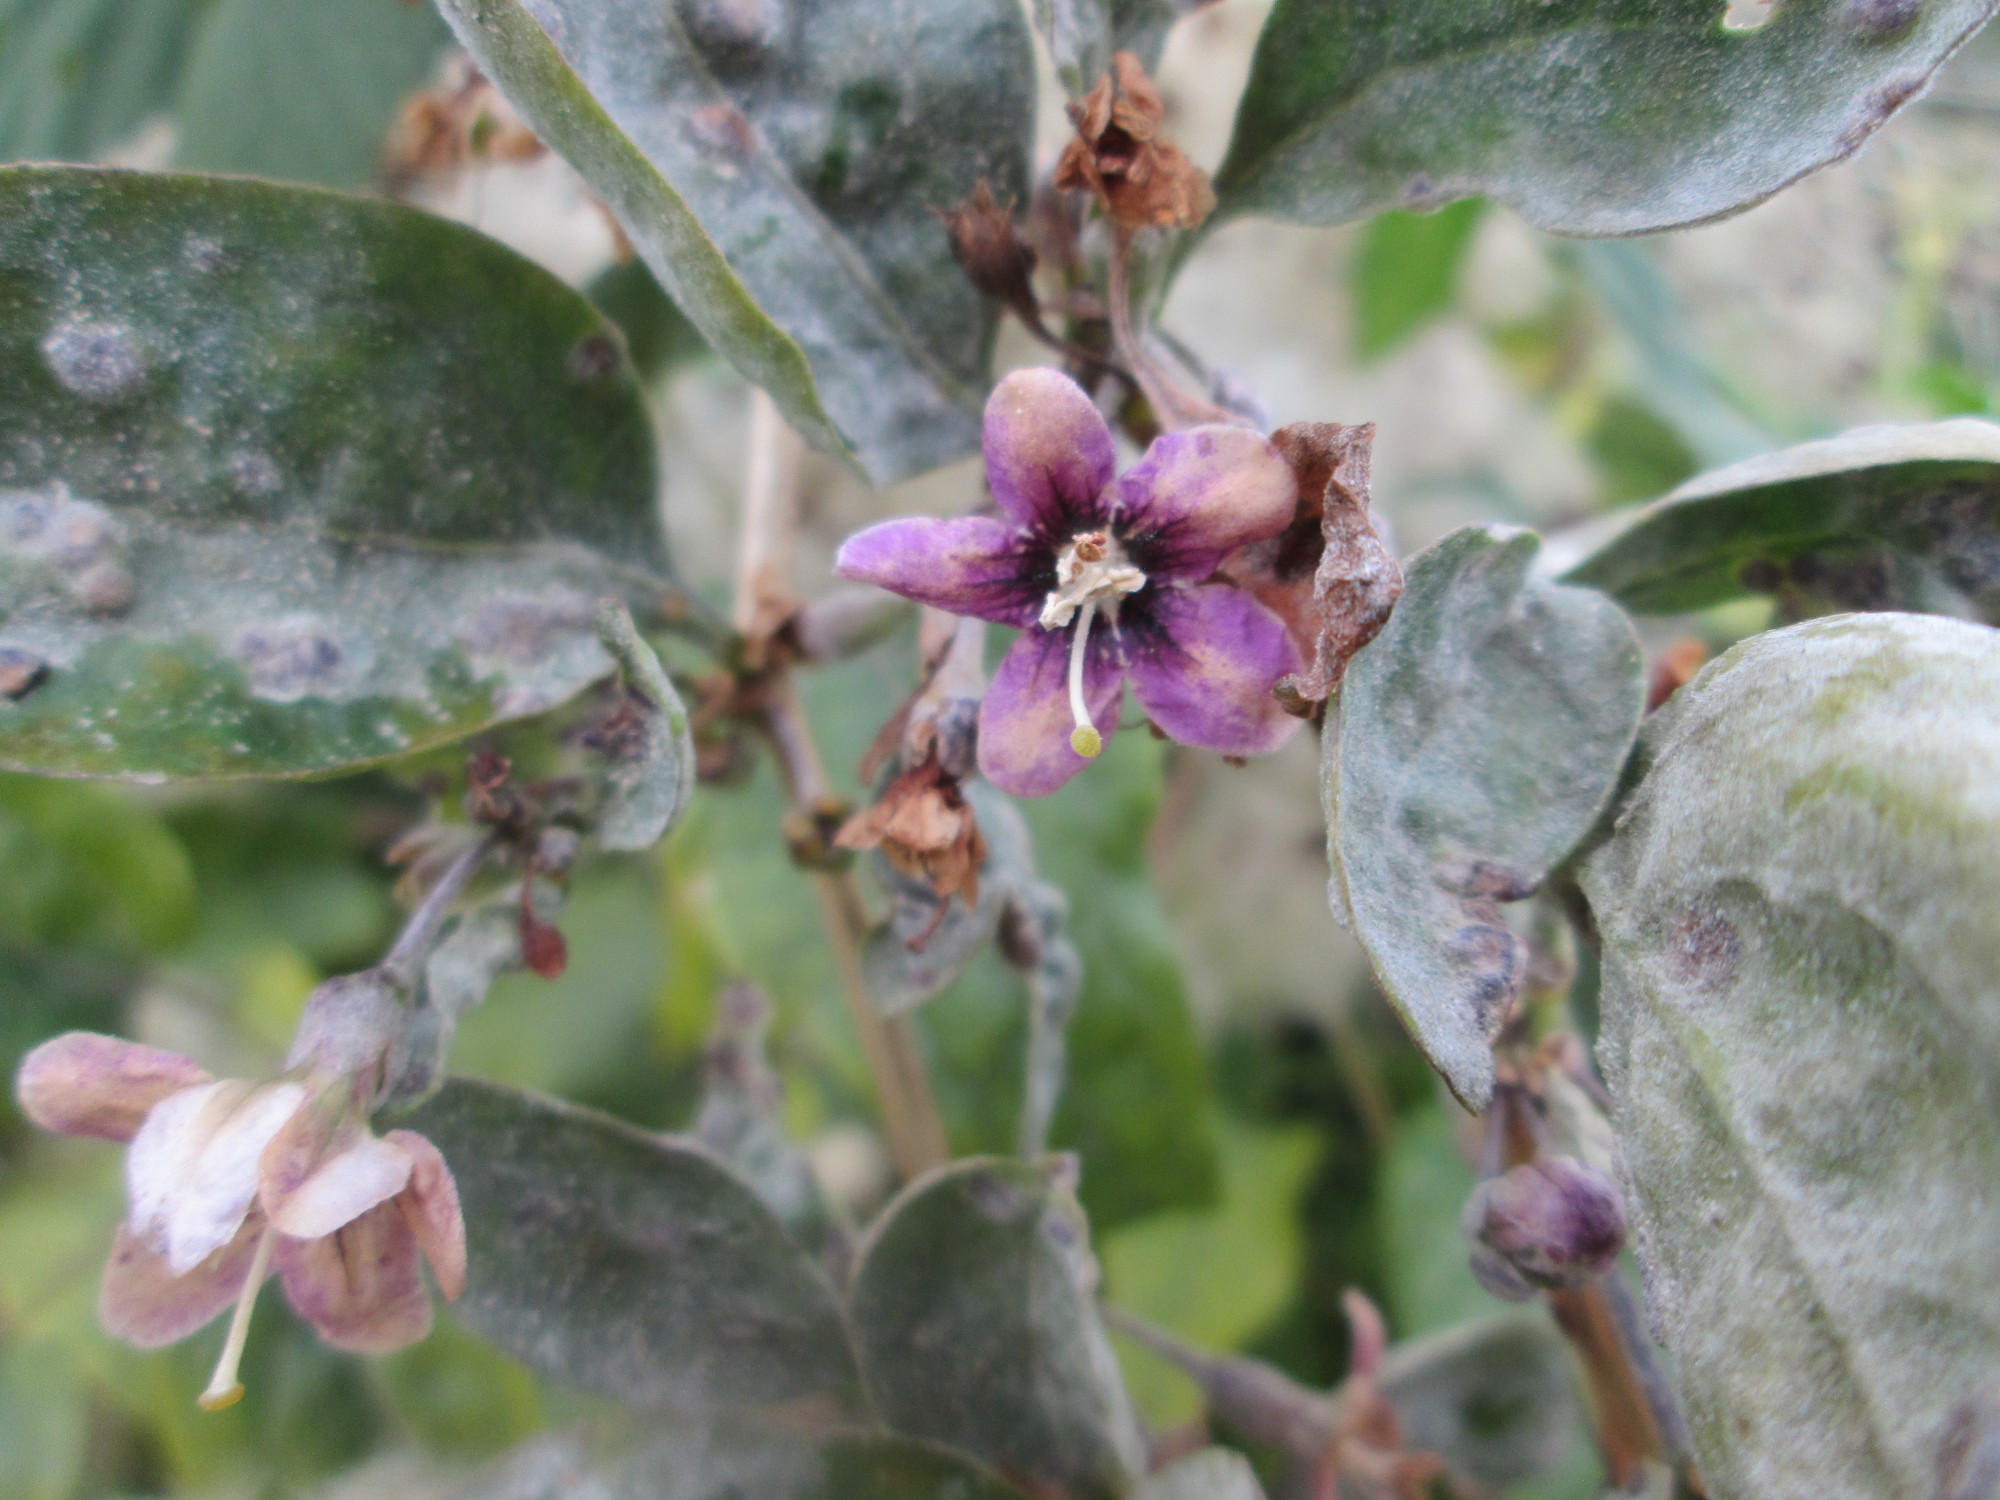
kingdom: Plantae
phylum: Tracheophyta
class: Magnoliopsida
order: Solanales
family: Solanaceae
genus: Lycium
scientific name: Lycium barbarum
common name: Duke of argyll's teaplant
